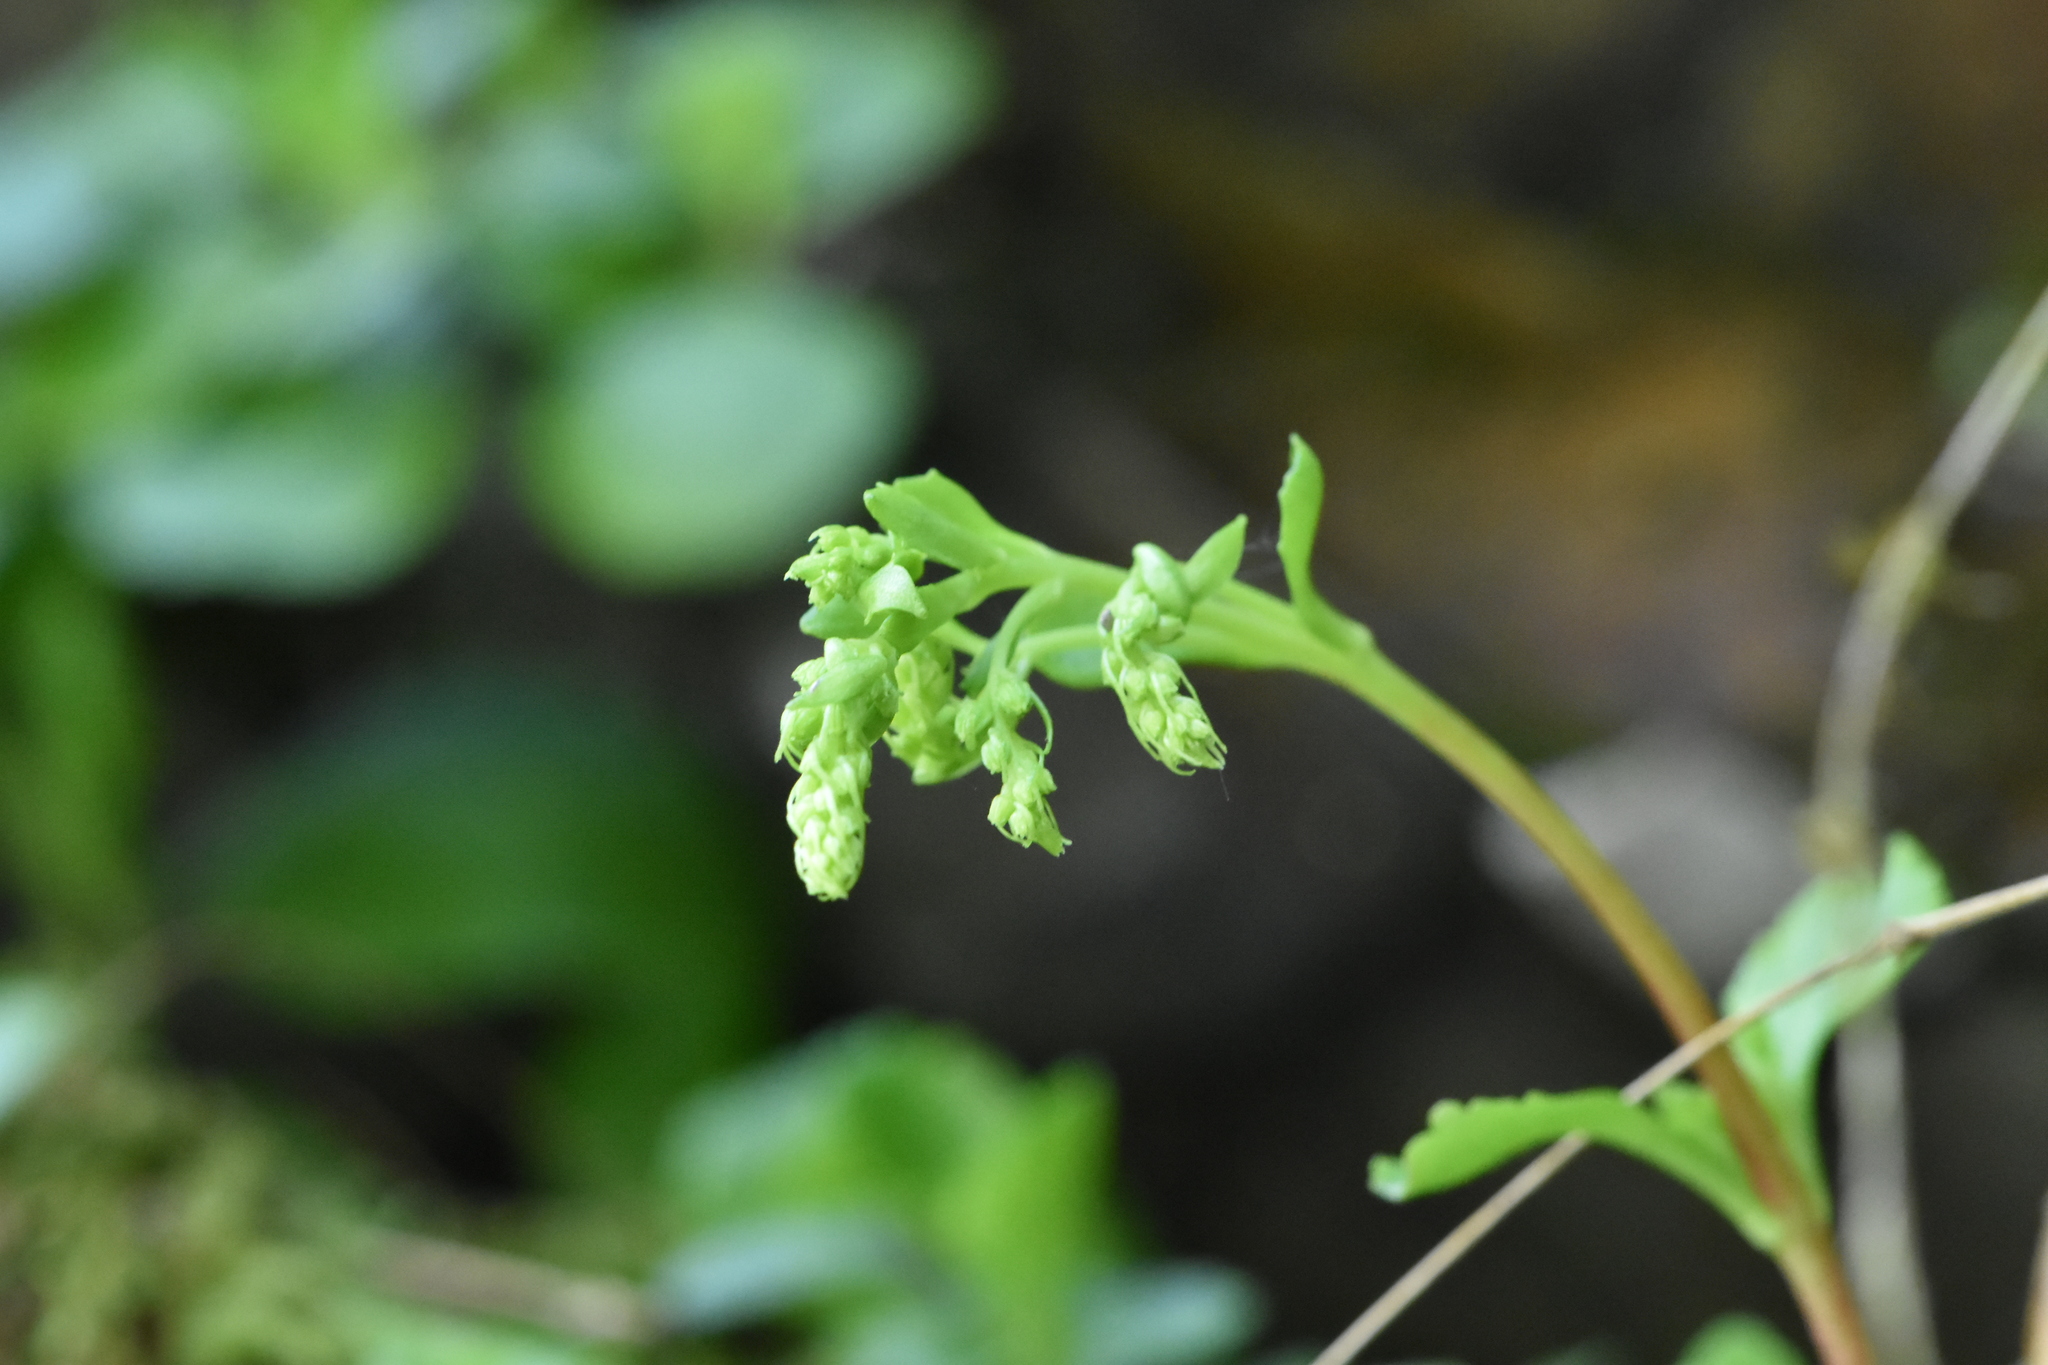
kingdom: Plantae
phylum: Tracheophyta
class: Magnoliopsida
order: Saxifragales
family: Crassulaceae
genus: Umbilicus
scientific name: Umbilicus oppositifolius
